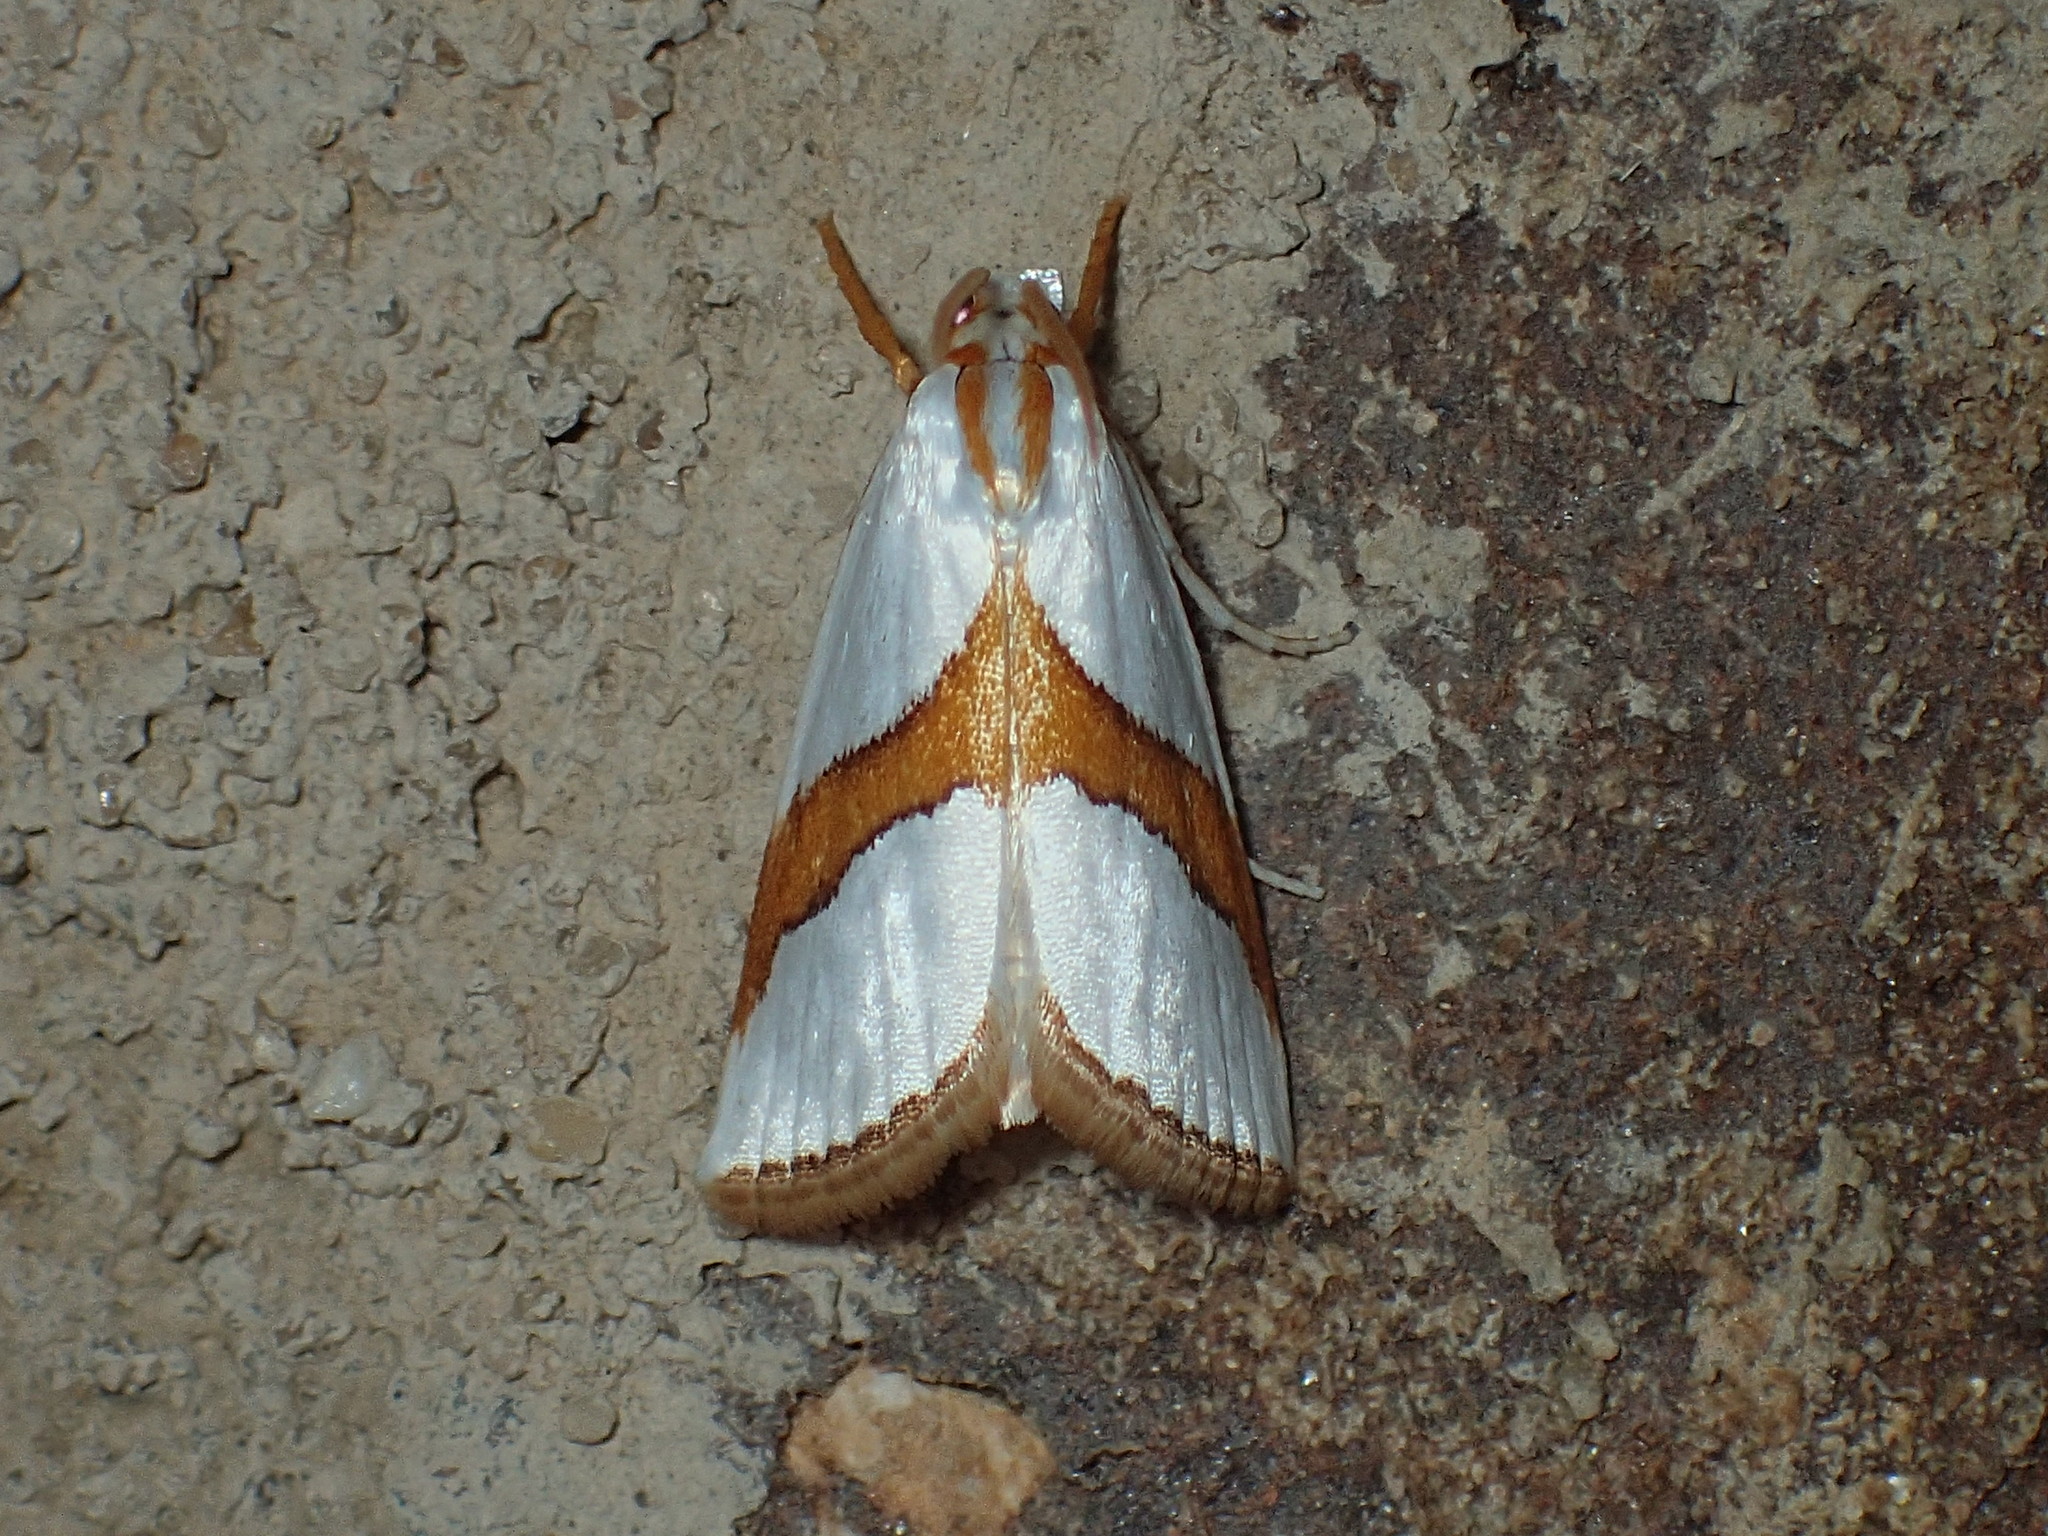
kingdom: Animalia
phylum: Arthropoda
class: Insecta
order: Lepidoptera
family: Crambidae
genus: Vaxi
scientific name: Vaxi critica
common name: Straight-lined vaxi moth
